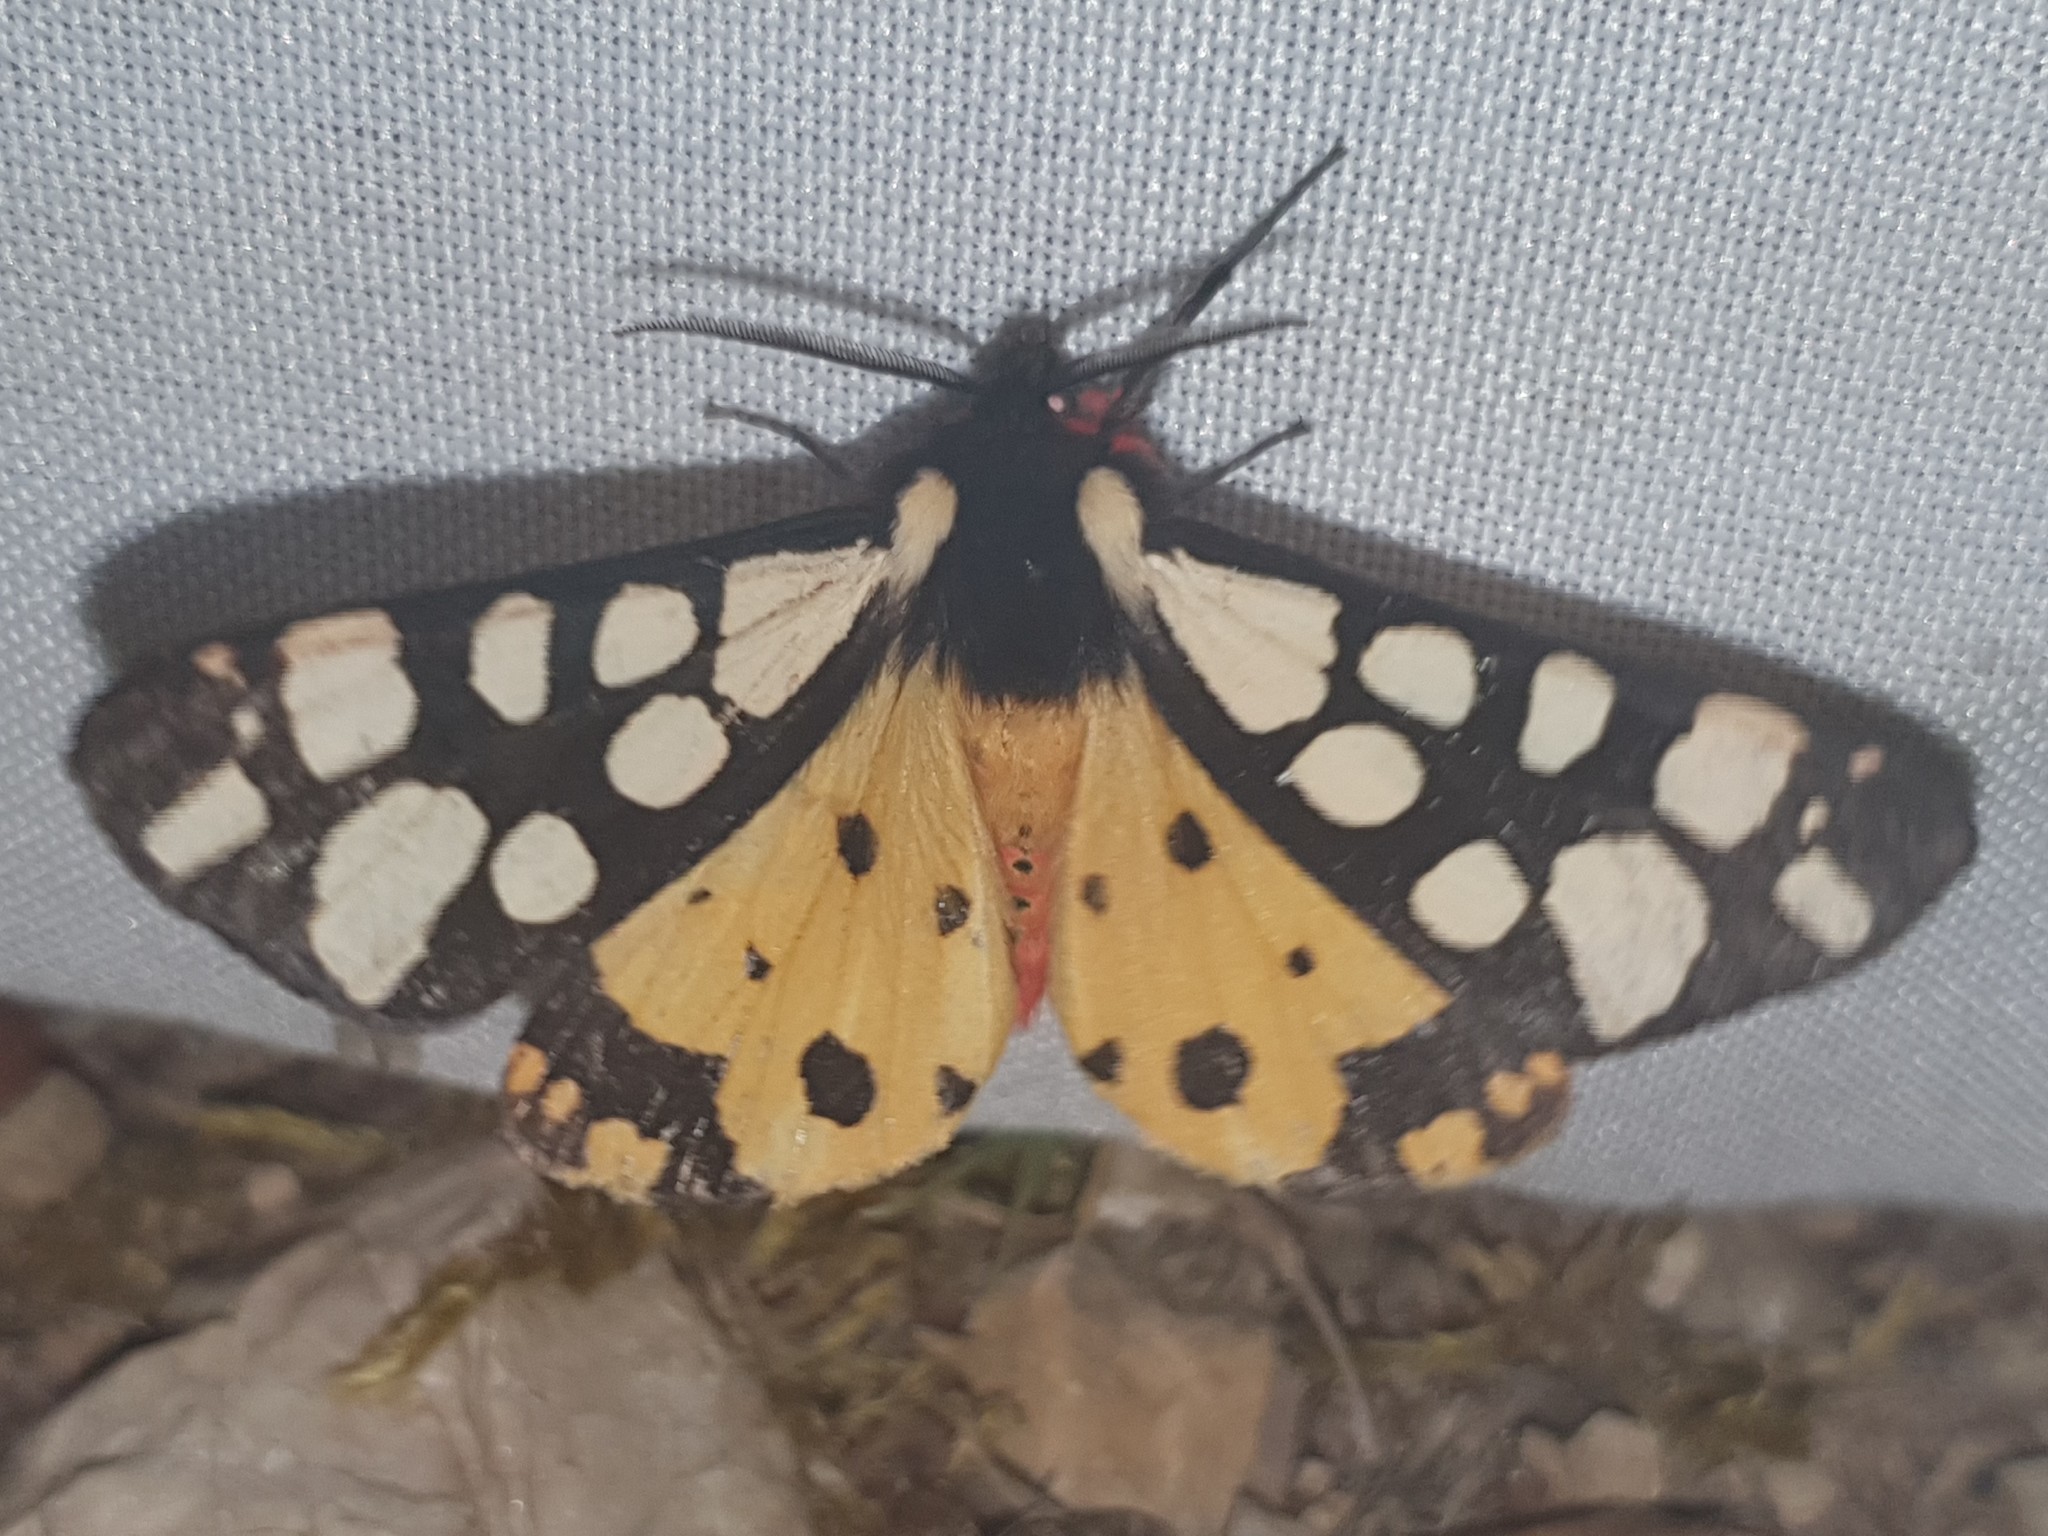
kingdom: Animalia
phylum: Arthropoda
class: Insecta
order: Lepidoptera
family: Erebidae
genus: Epicallia
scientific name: Epicallia villica
